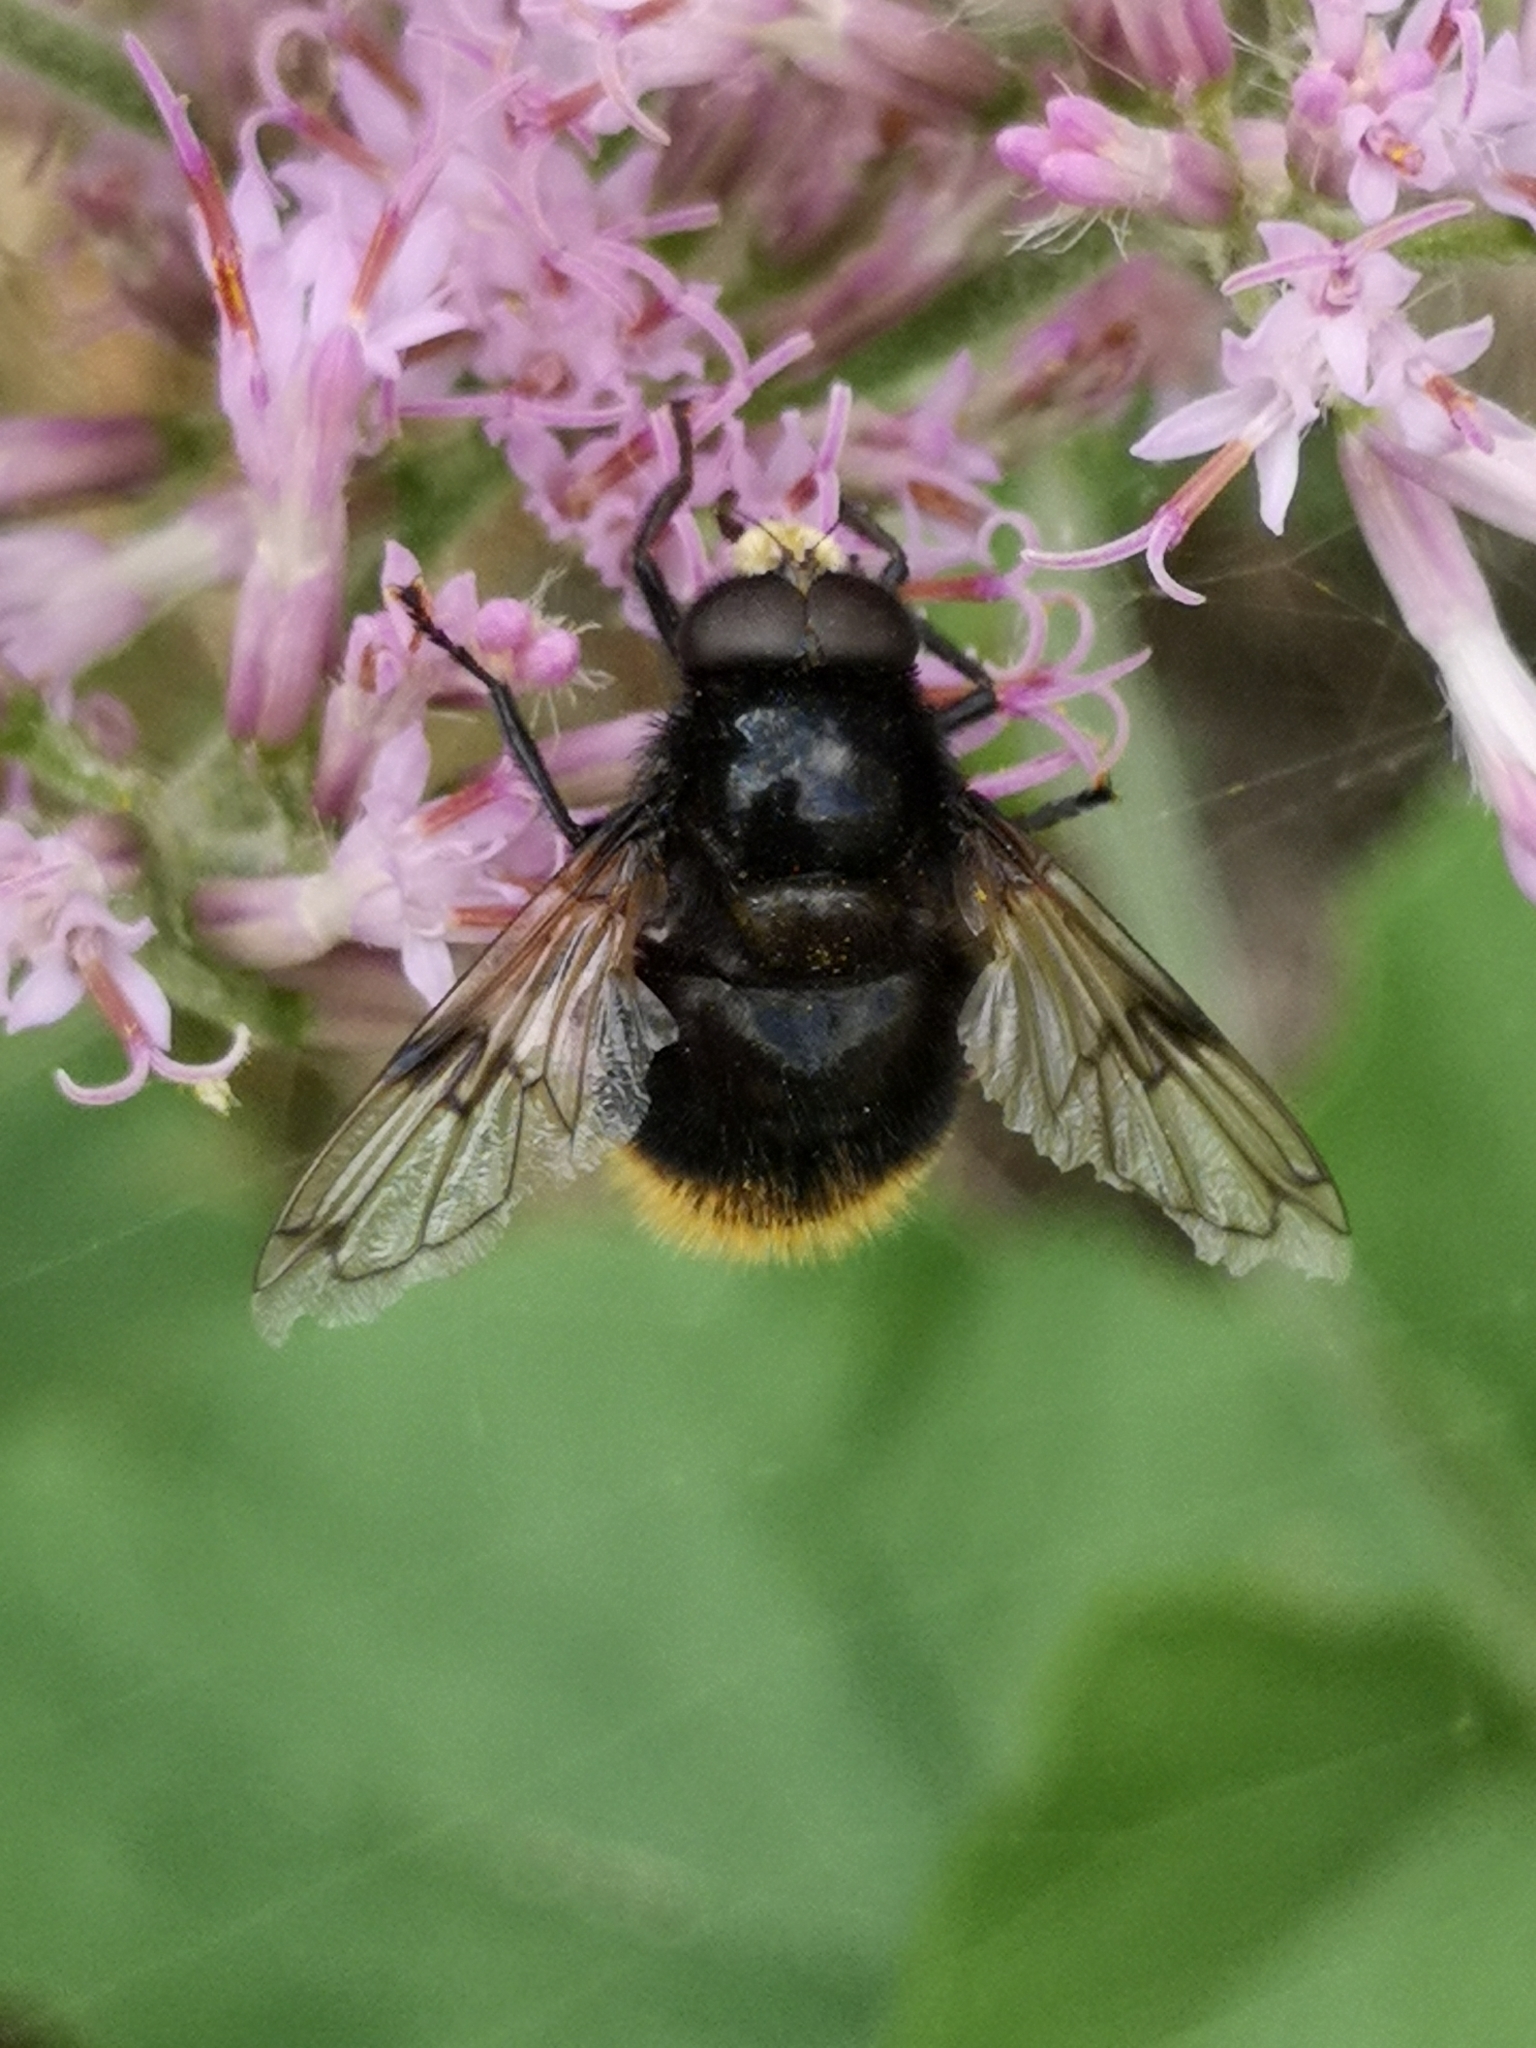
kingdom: Animalia
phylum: Arthropoda
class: Insecta
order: Diptera
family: Syrphidae
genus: Volucella
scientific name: Volucella bombylans
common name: Bumble bee hover fly
